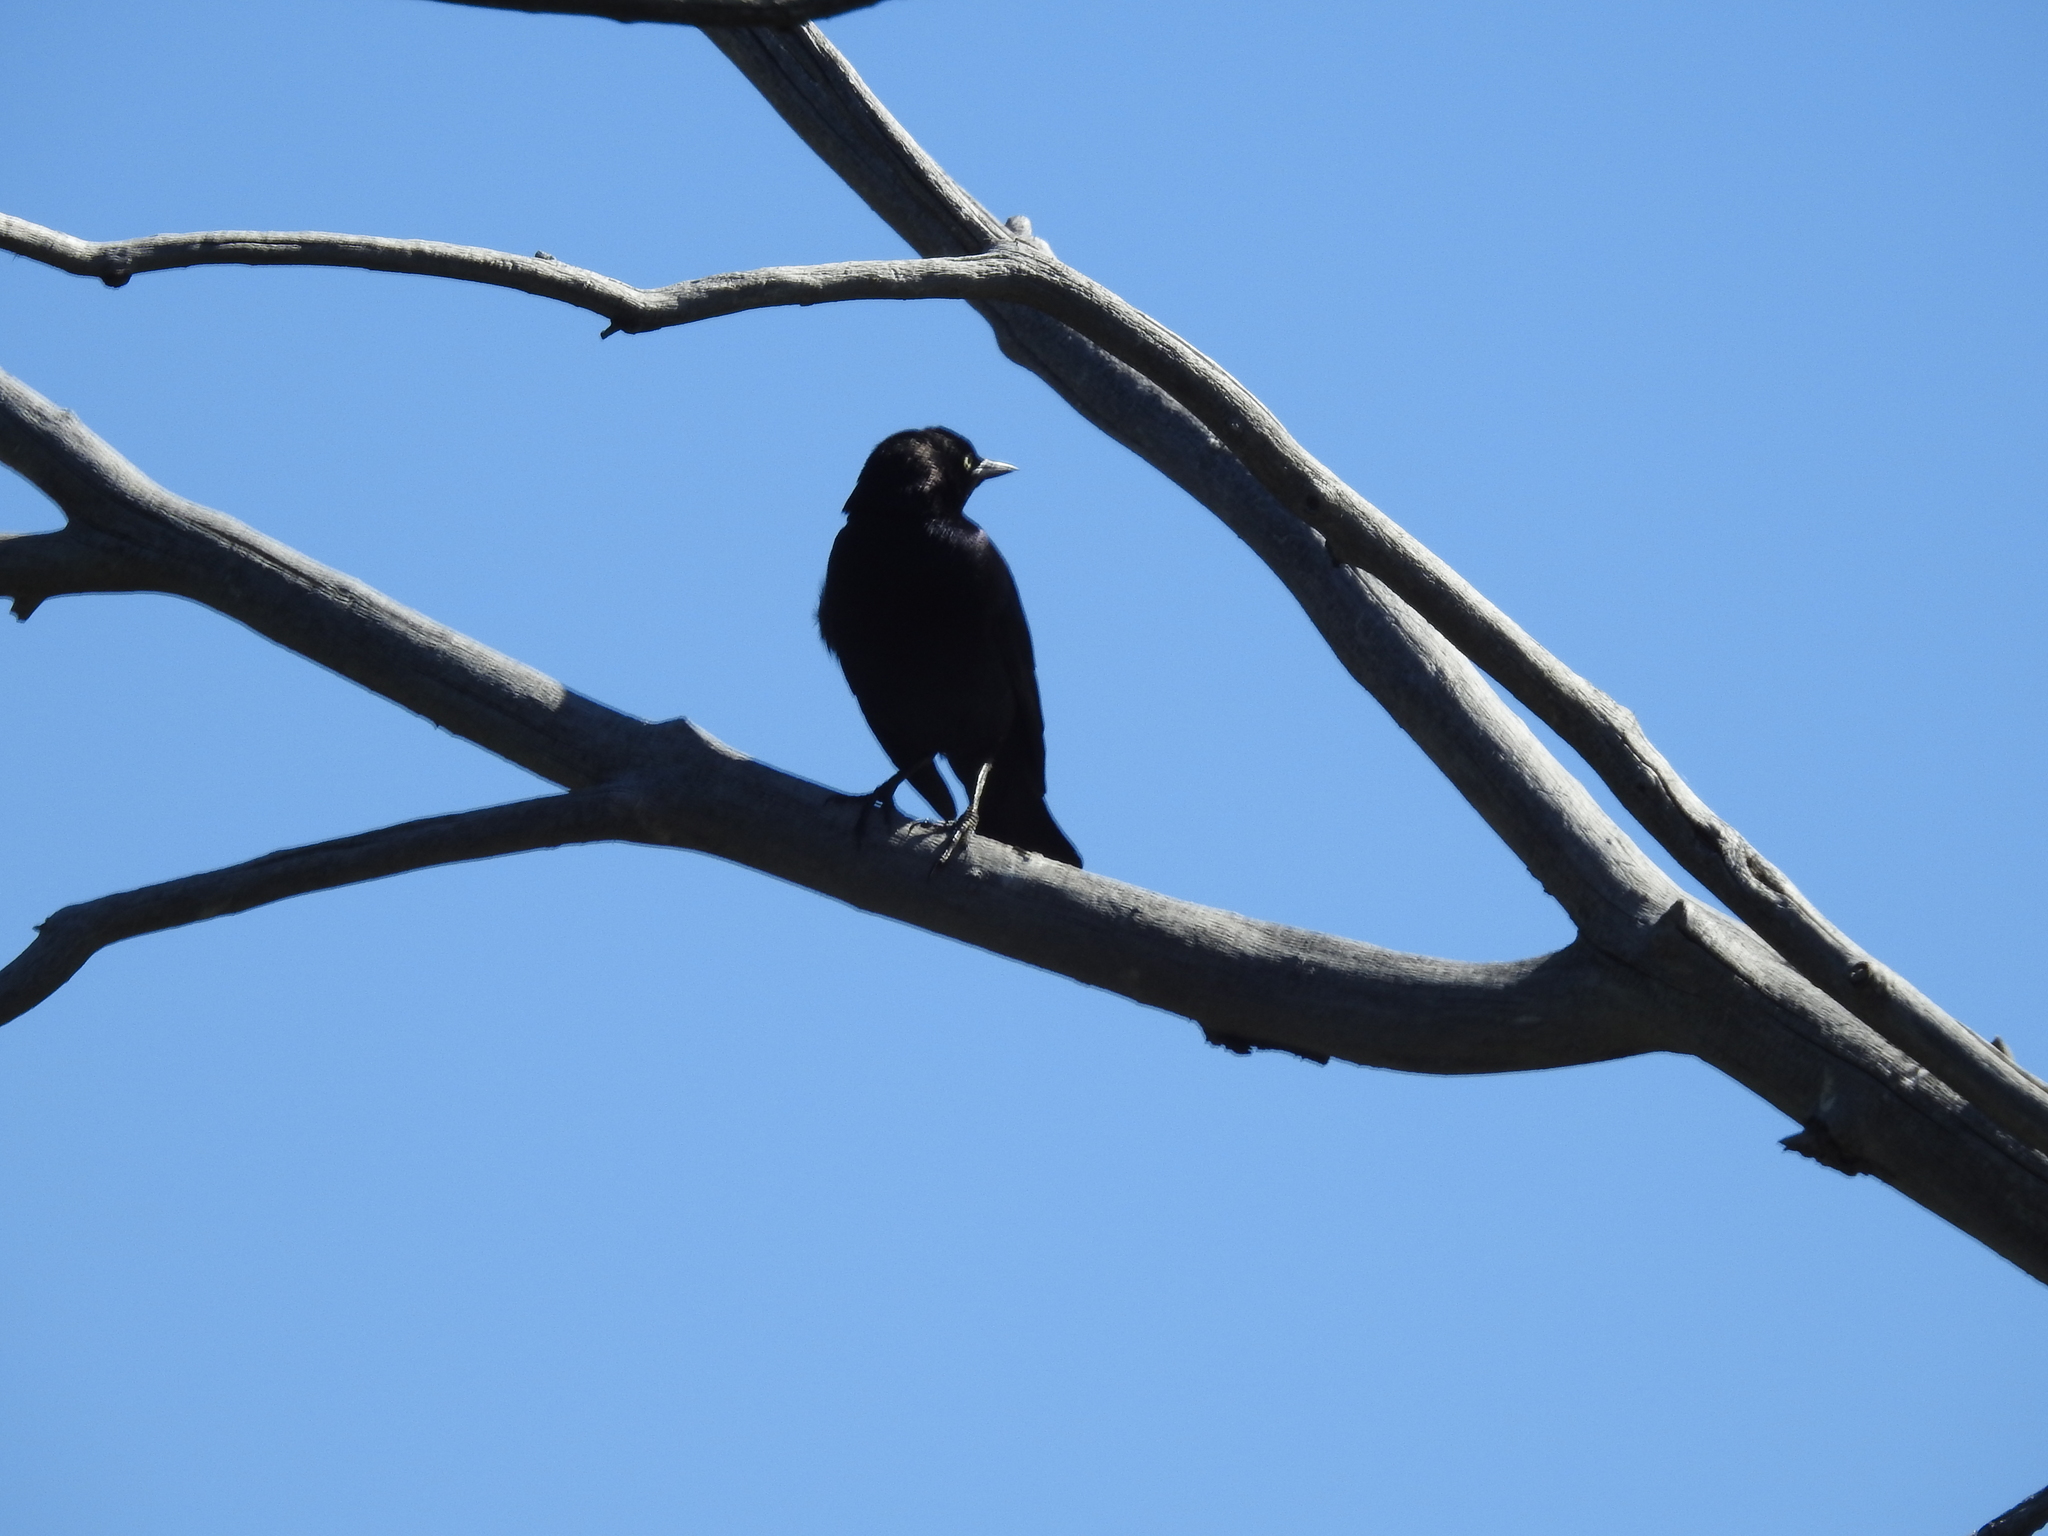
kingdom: Animalia
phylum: Chordata
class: Aves
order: Passeriformes
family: Icteridae
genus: Euphagus
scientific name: Euphagus cyanocephalus
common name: Brewer's blackbird
